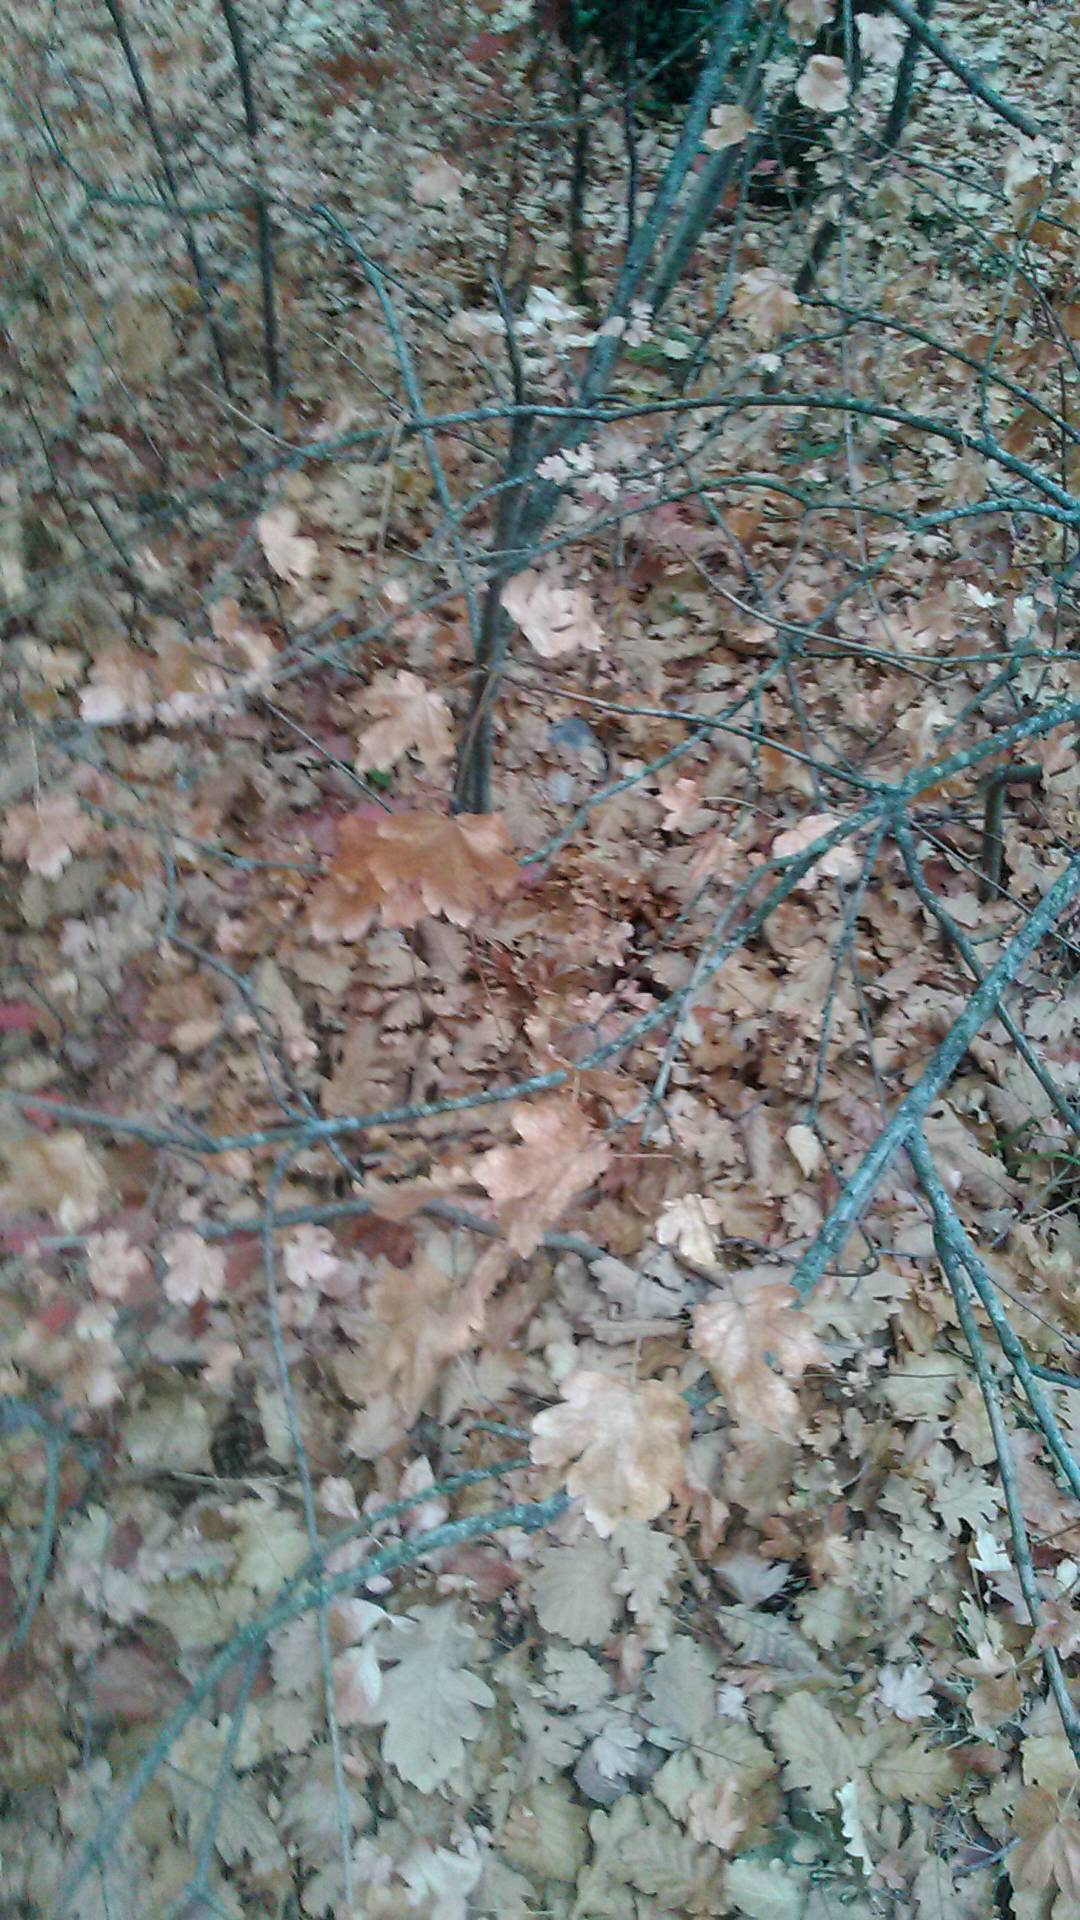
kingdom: Plantae
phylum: Tracheophyta
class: Magnoliopsida
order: Sapindales
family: Sapindaceae
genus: Acer
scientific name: Acer campestre
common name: Field maple
